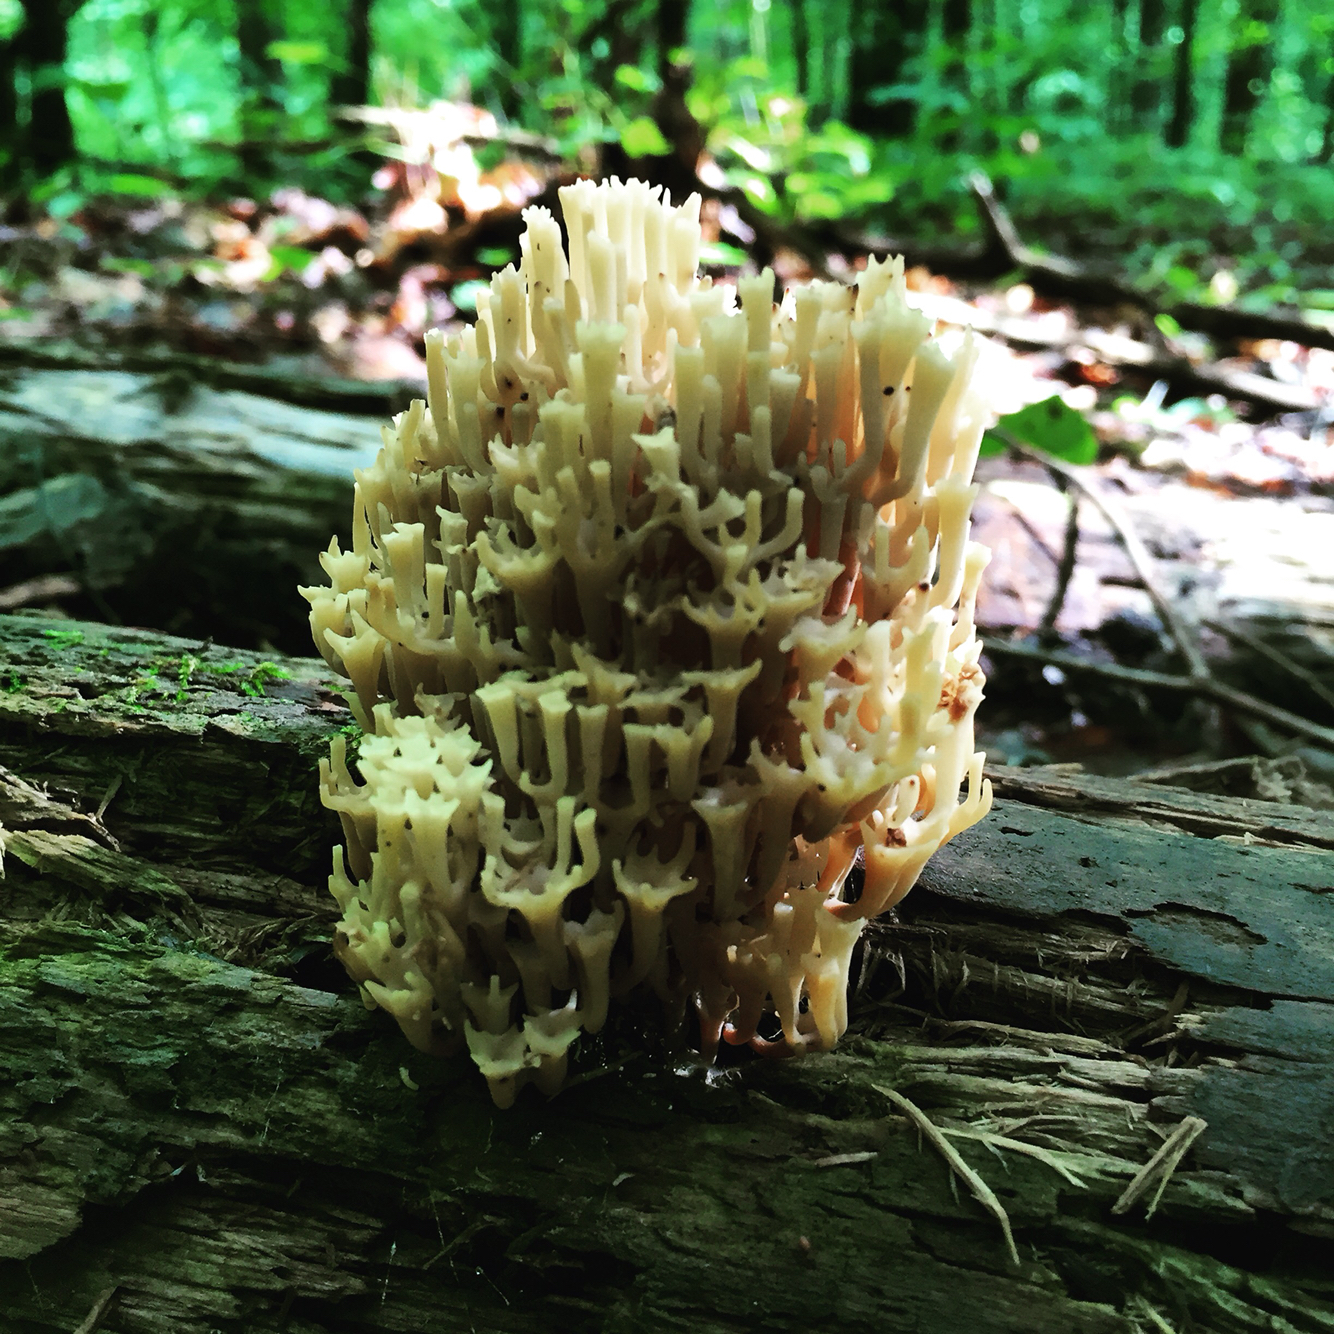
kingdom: Fungi
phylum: Basidiomycota
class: Agaricomycetes
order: Russulales
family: Auriscalpiaceae
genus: Artomyces
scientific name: Artomyces pyxidatus
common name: Crown-tipped coral fungus
